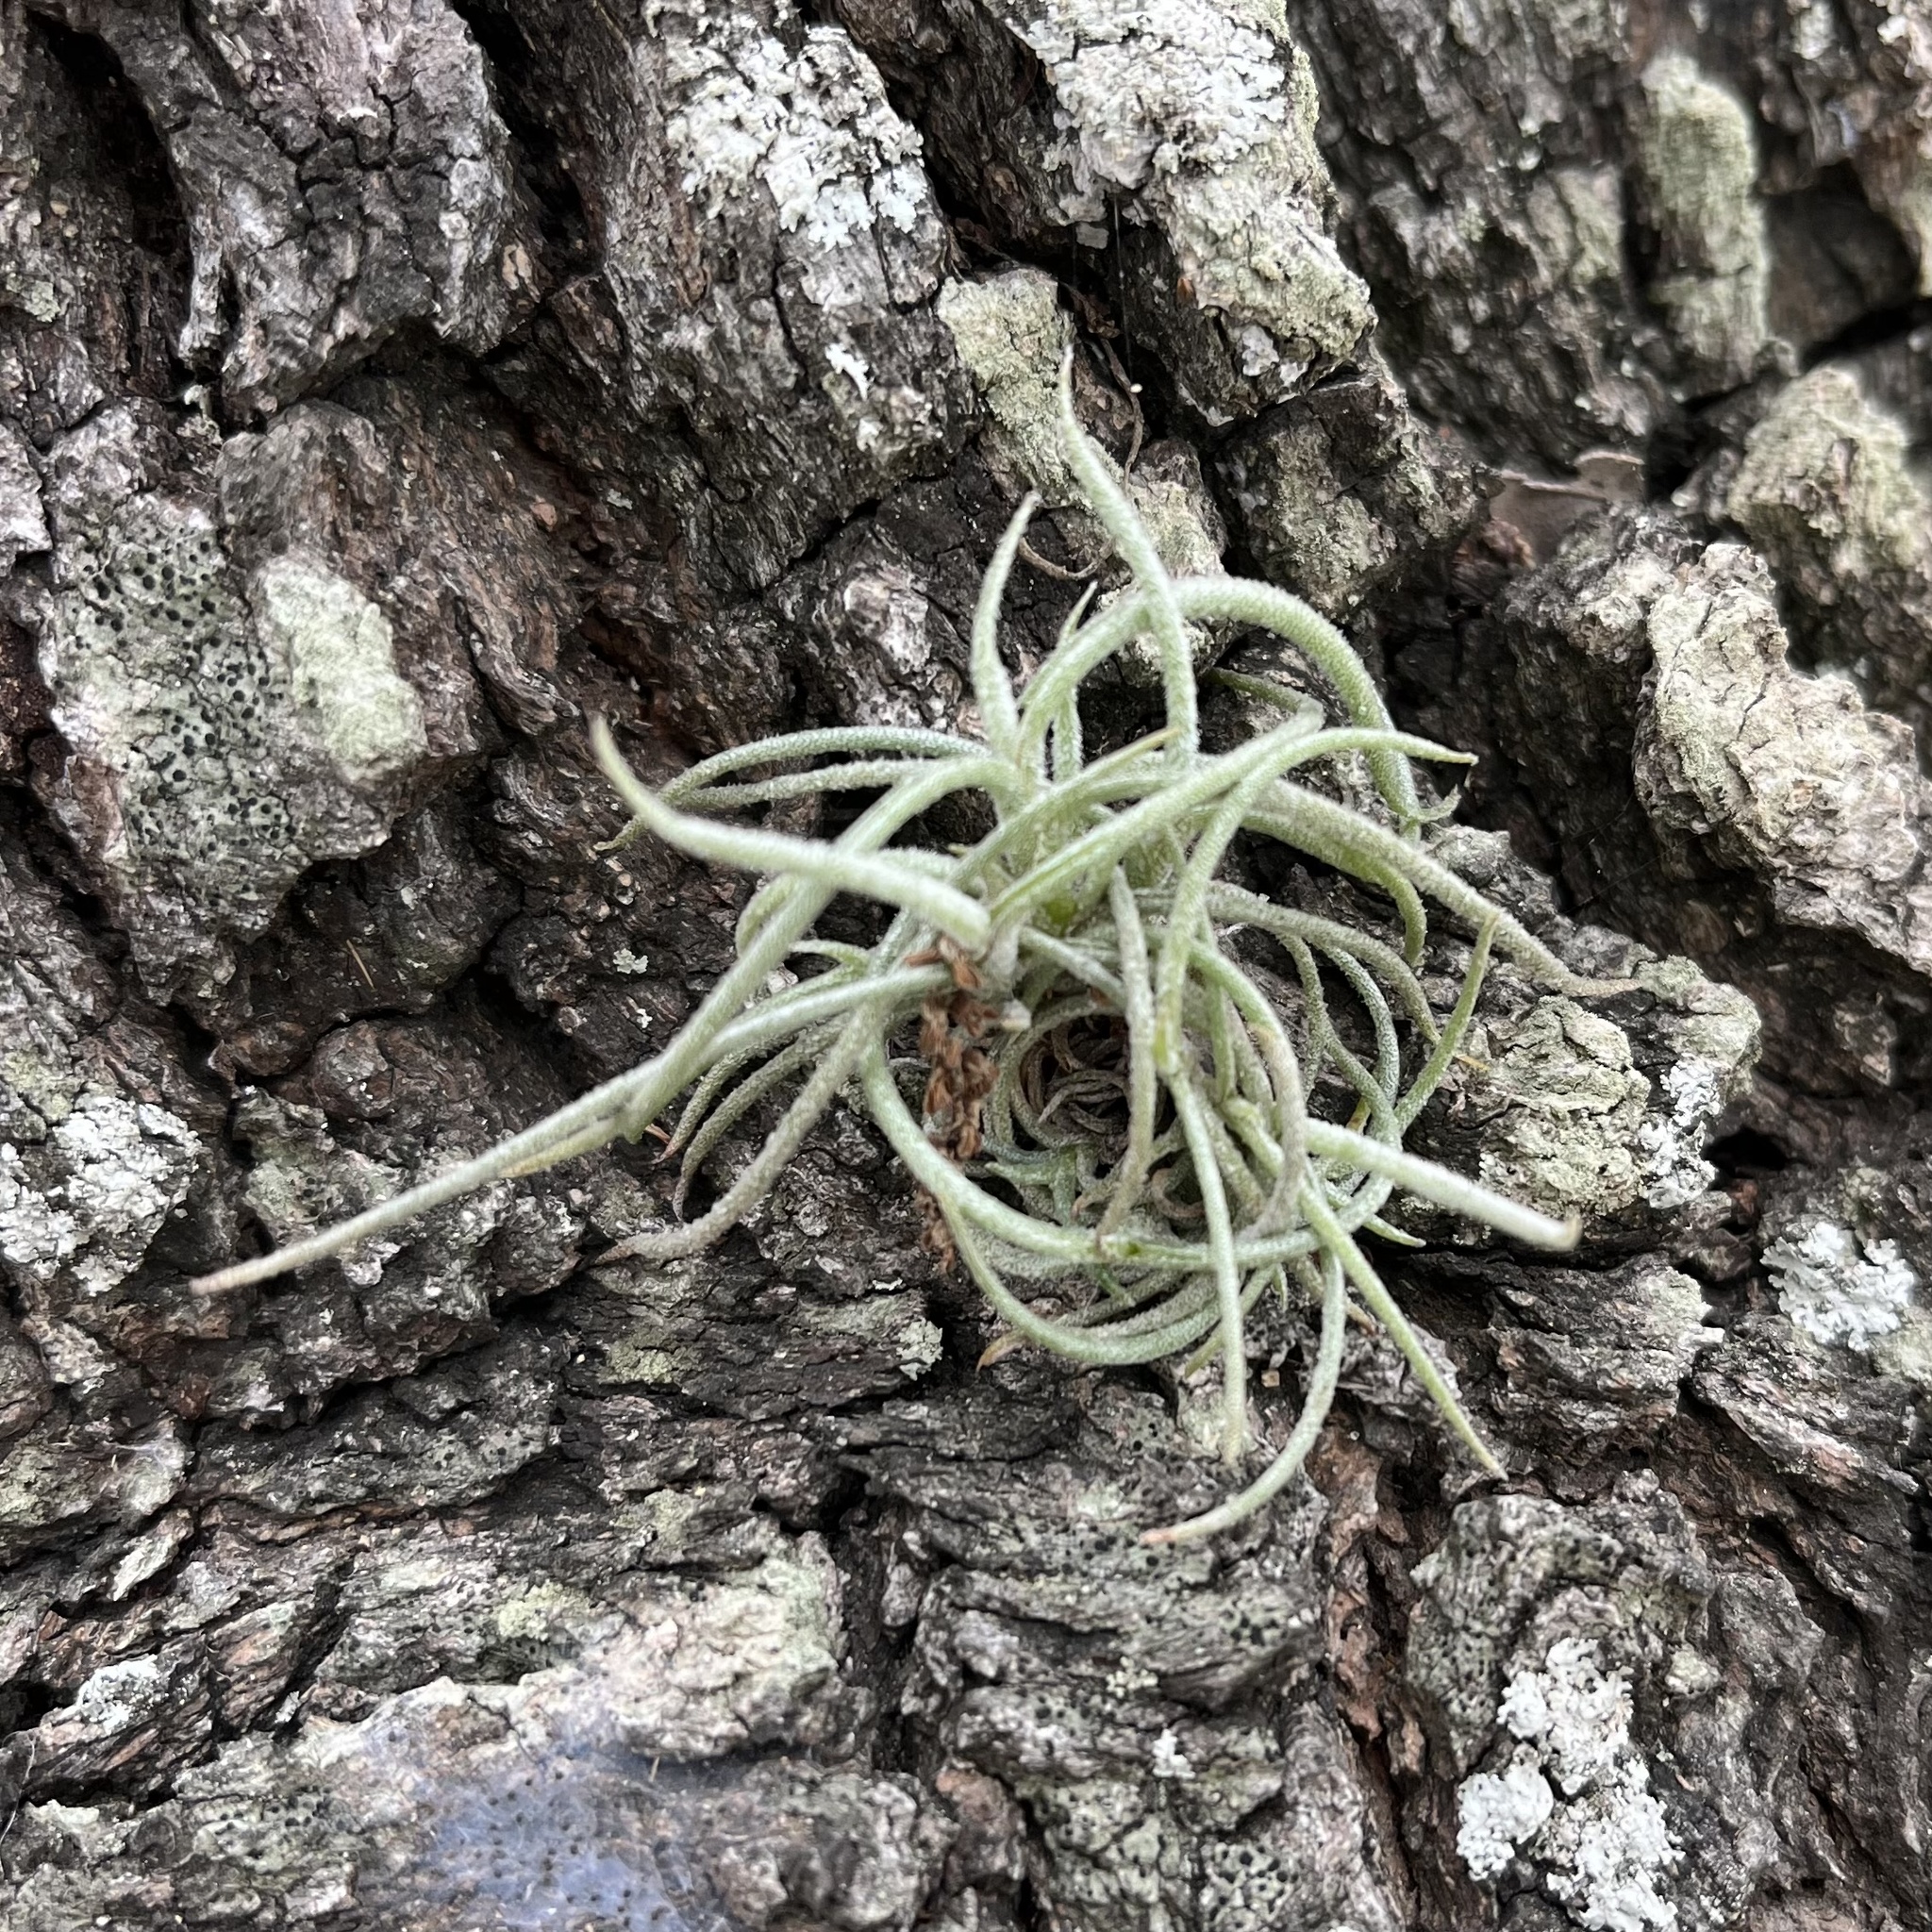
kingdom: Plantae
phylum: Tracheophyta
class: Liliopsida
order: Poales
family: Bromeliaceae
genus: Tillandsia
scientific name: Tillandsia recurvata
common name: Small ballmoss
